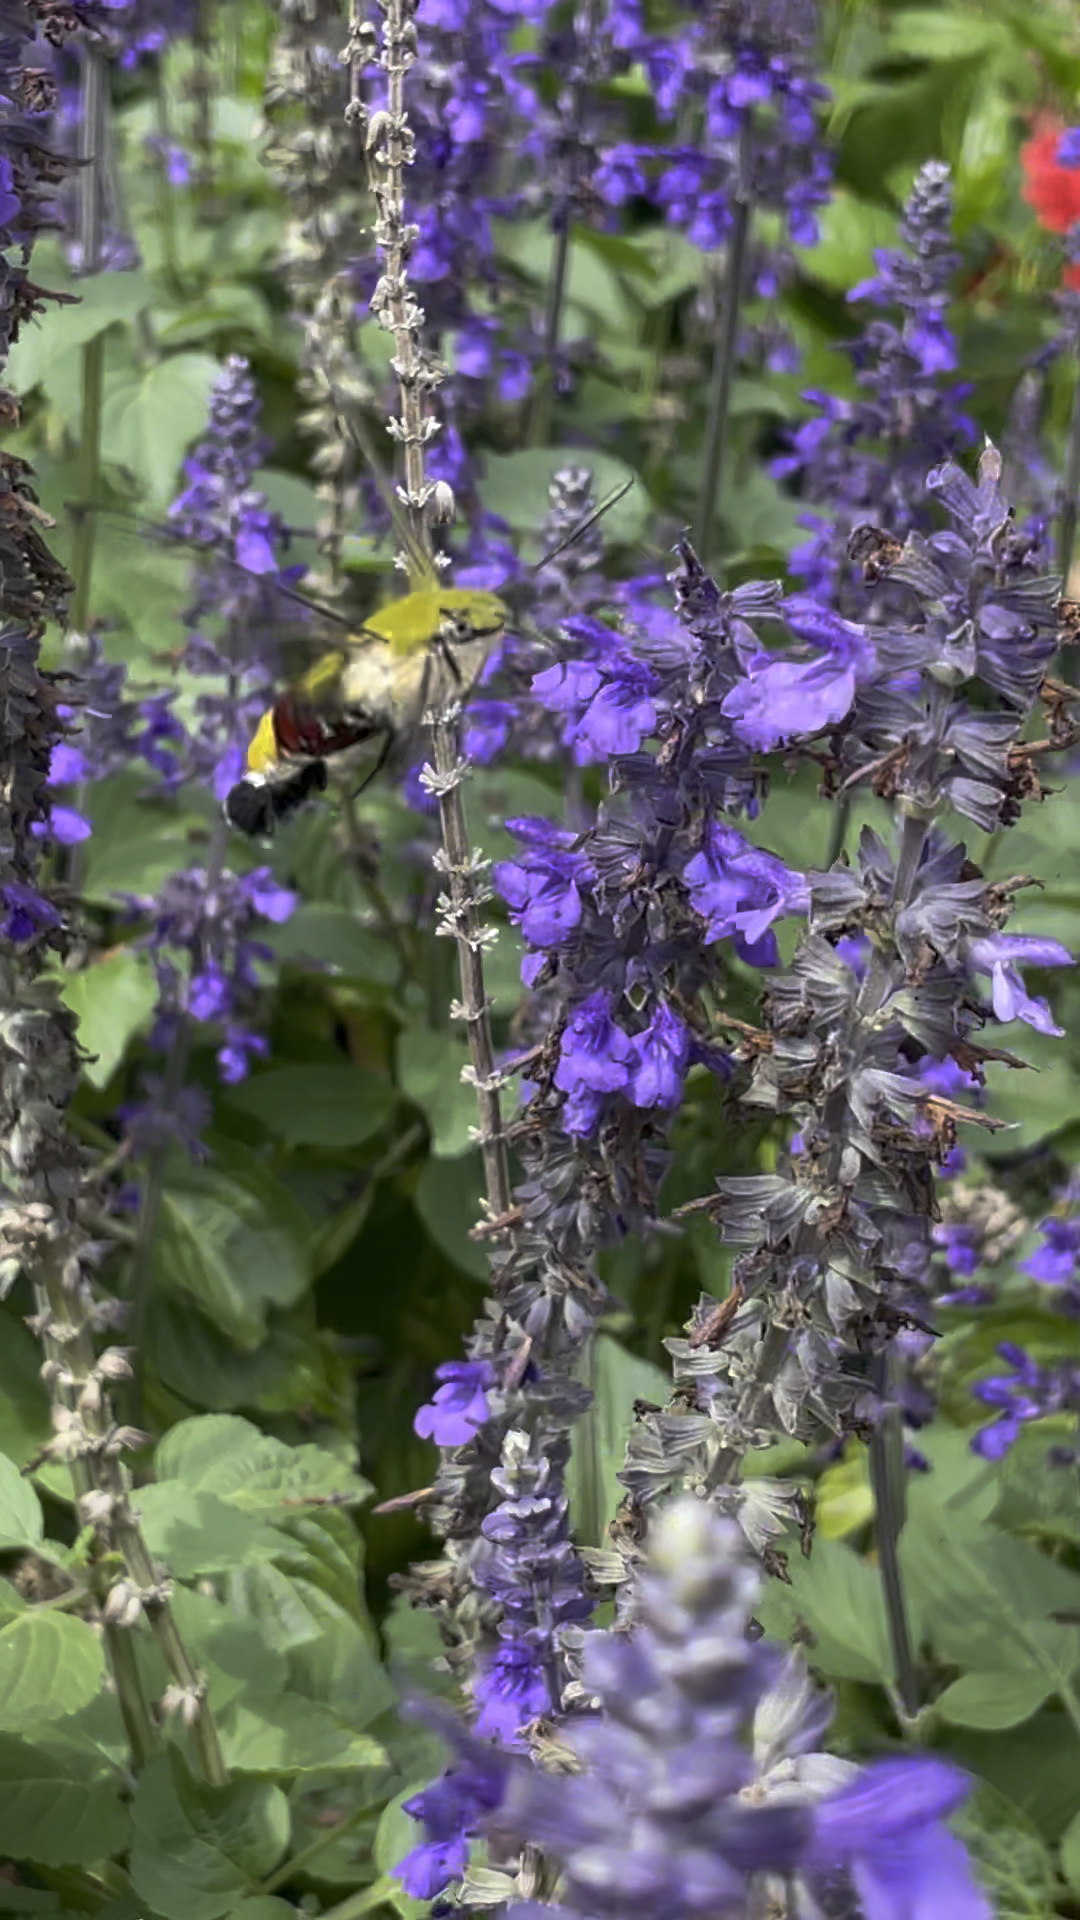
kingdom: Animalia
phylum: Arthropoda
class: Insecta
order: Lepidoptera
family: Sphingidae
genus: Cephonodes
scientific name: Cephonodes hylas
